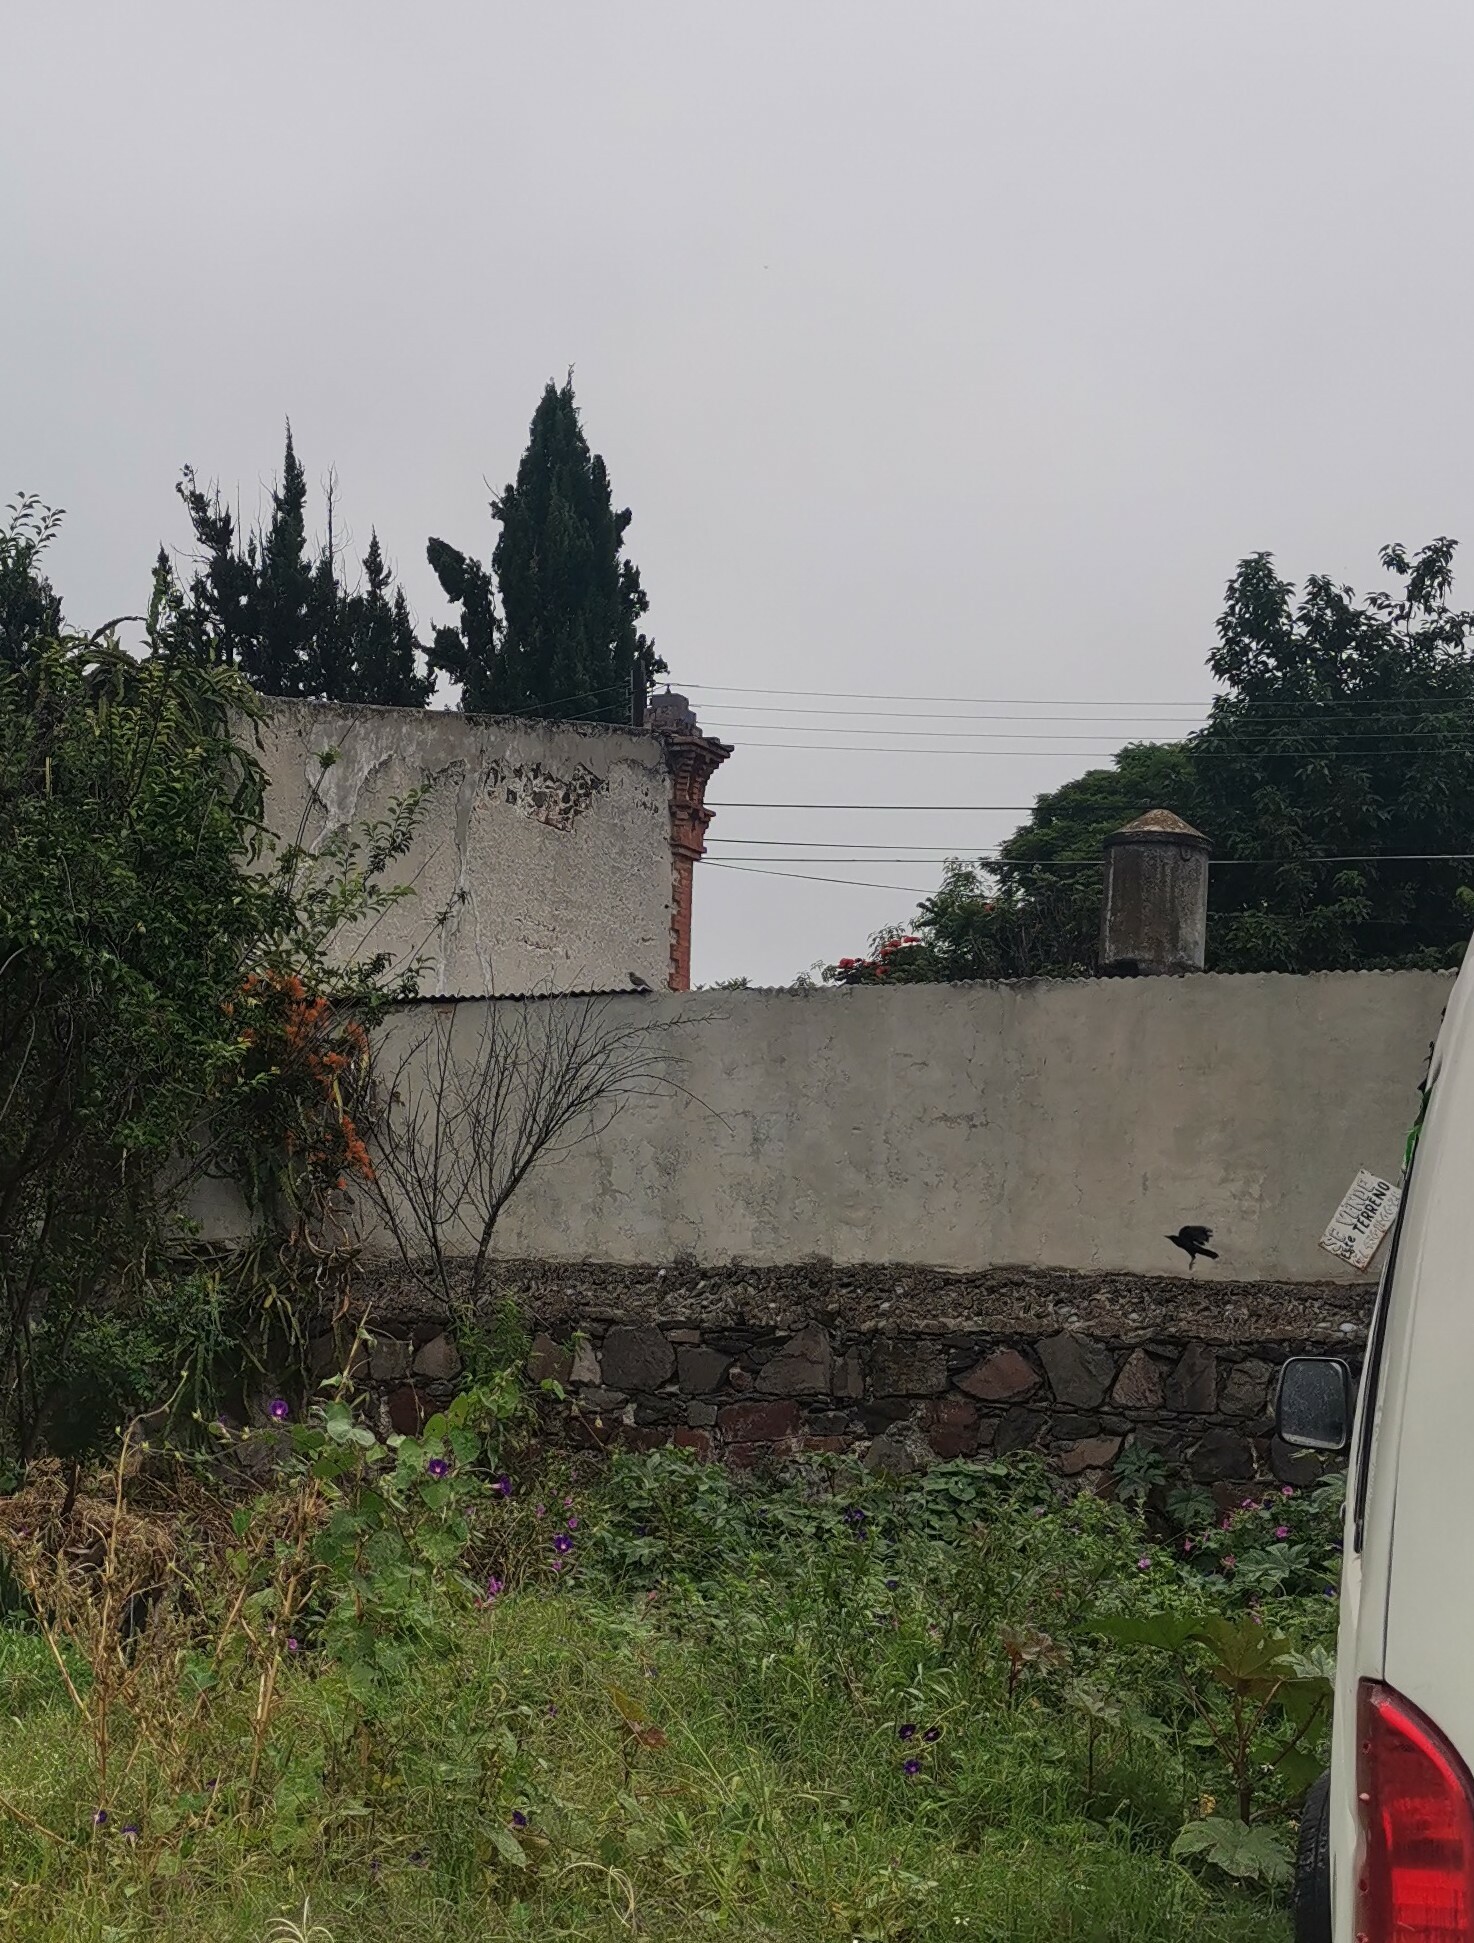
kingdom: Animalia
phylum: Chordata
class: Aves
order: Passeriformes
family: Icteridae
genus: Quiscalus
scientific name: Quiscalus mexicanus
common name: Great-tailed grackle
